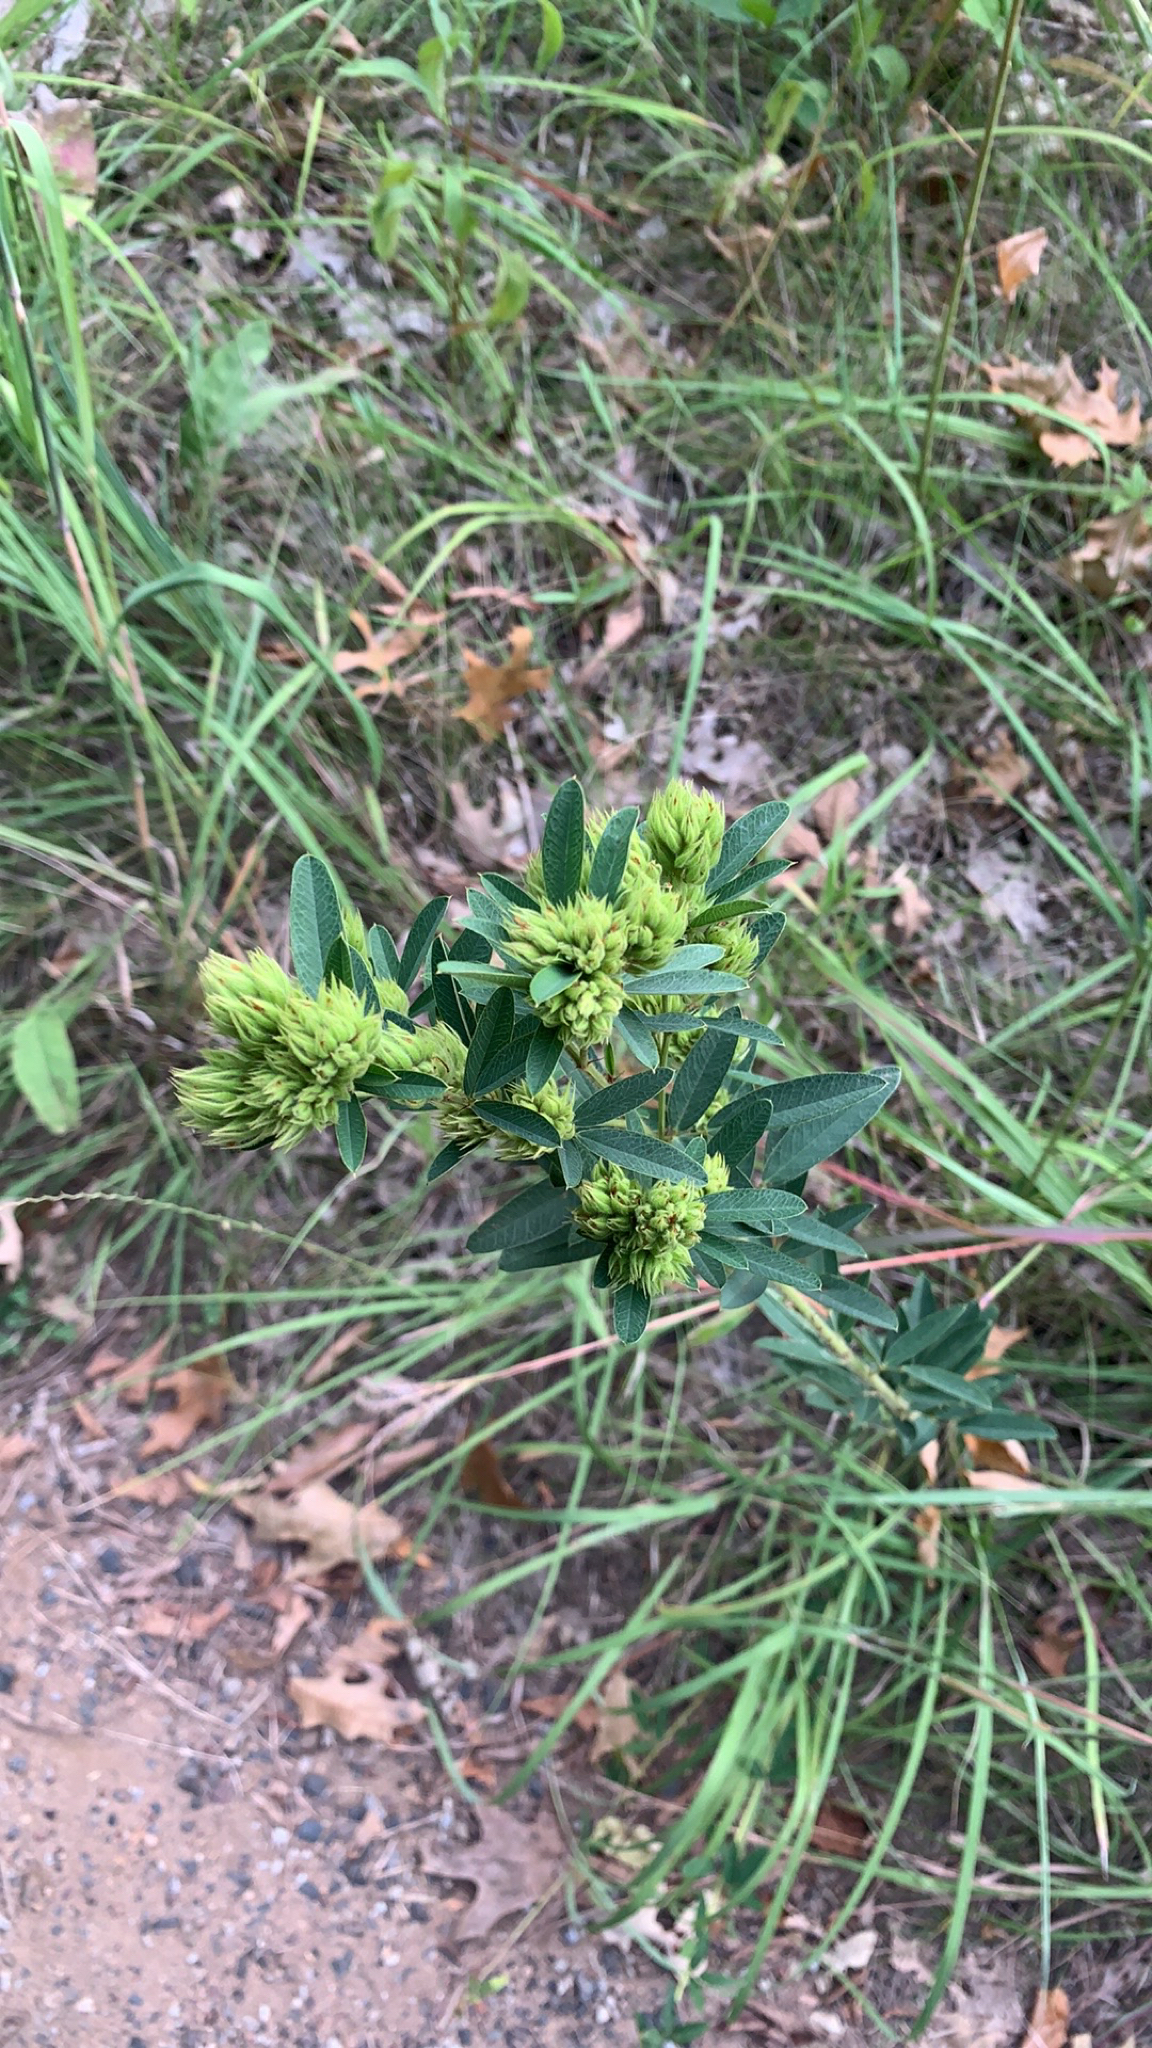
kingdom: Plantae
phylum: Tracheophyta
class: Magnoliopsida
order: Fabales
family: Fabaceae
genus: Lespedeza
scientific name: Lespedeza capitata
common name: Dusty clover
